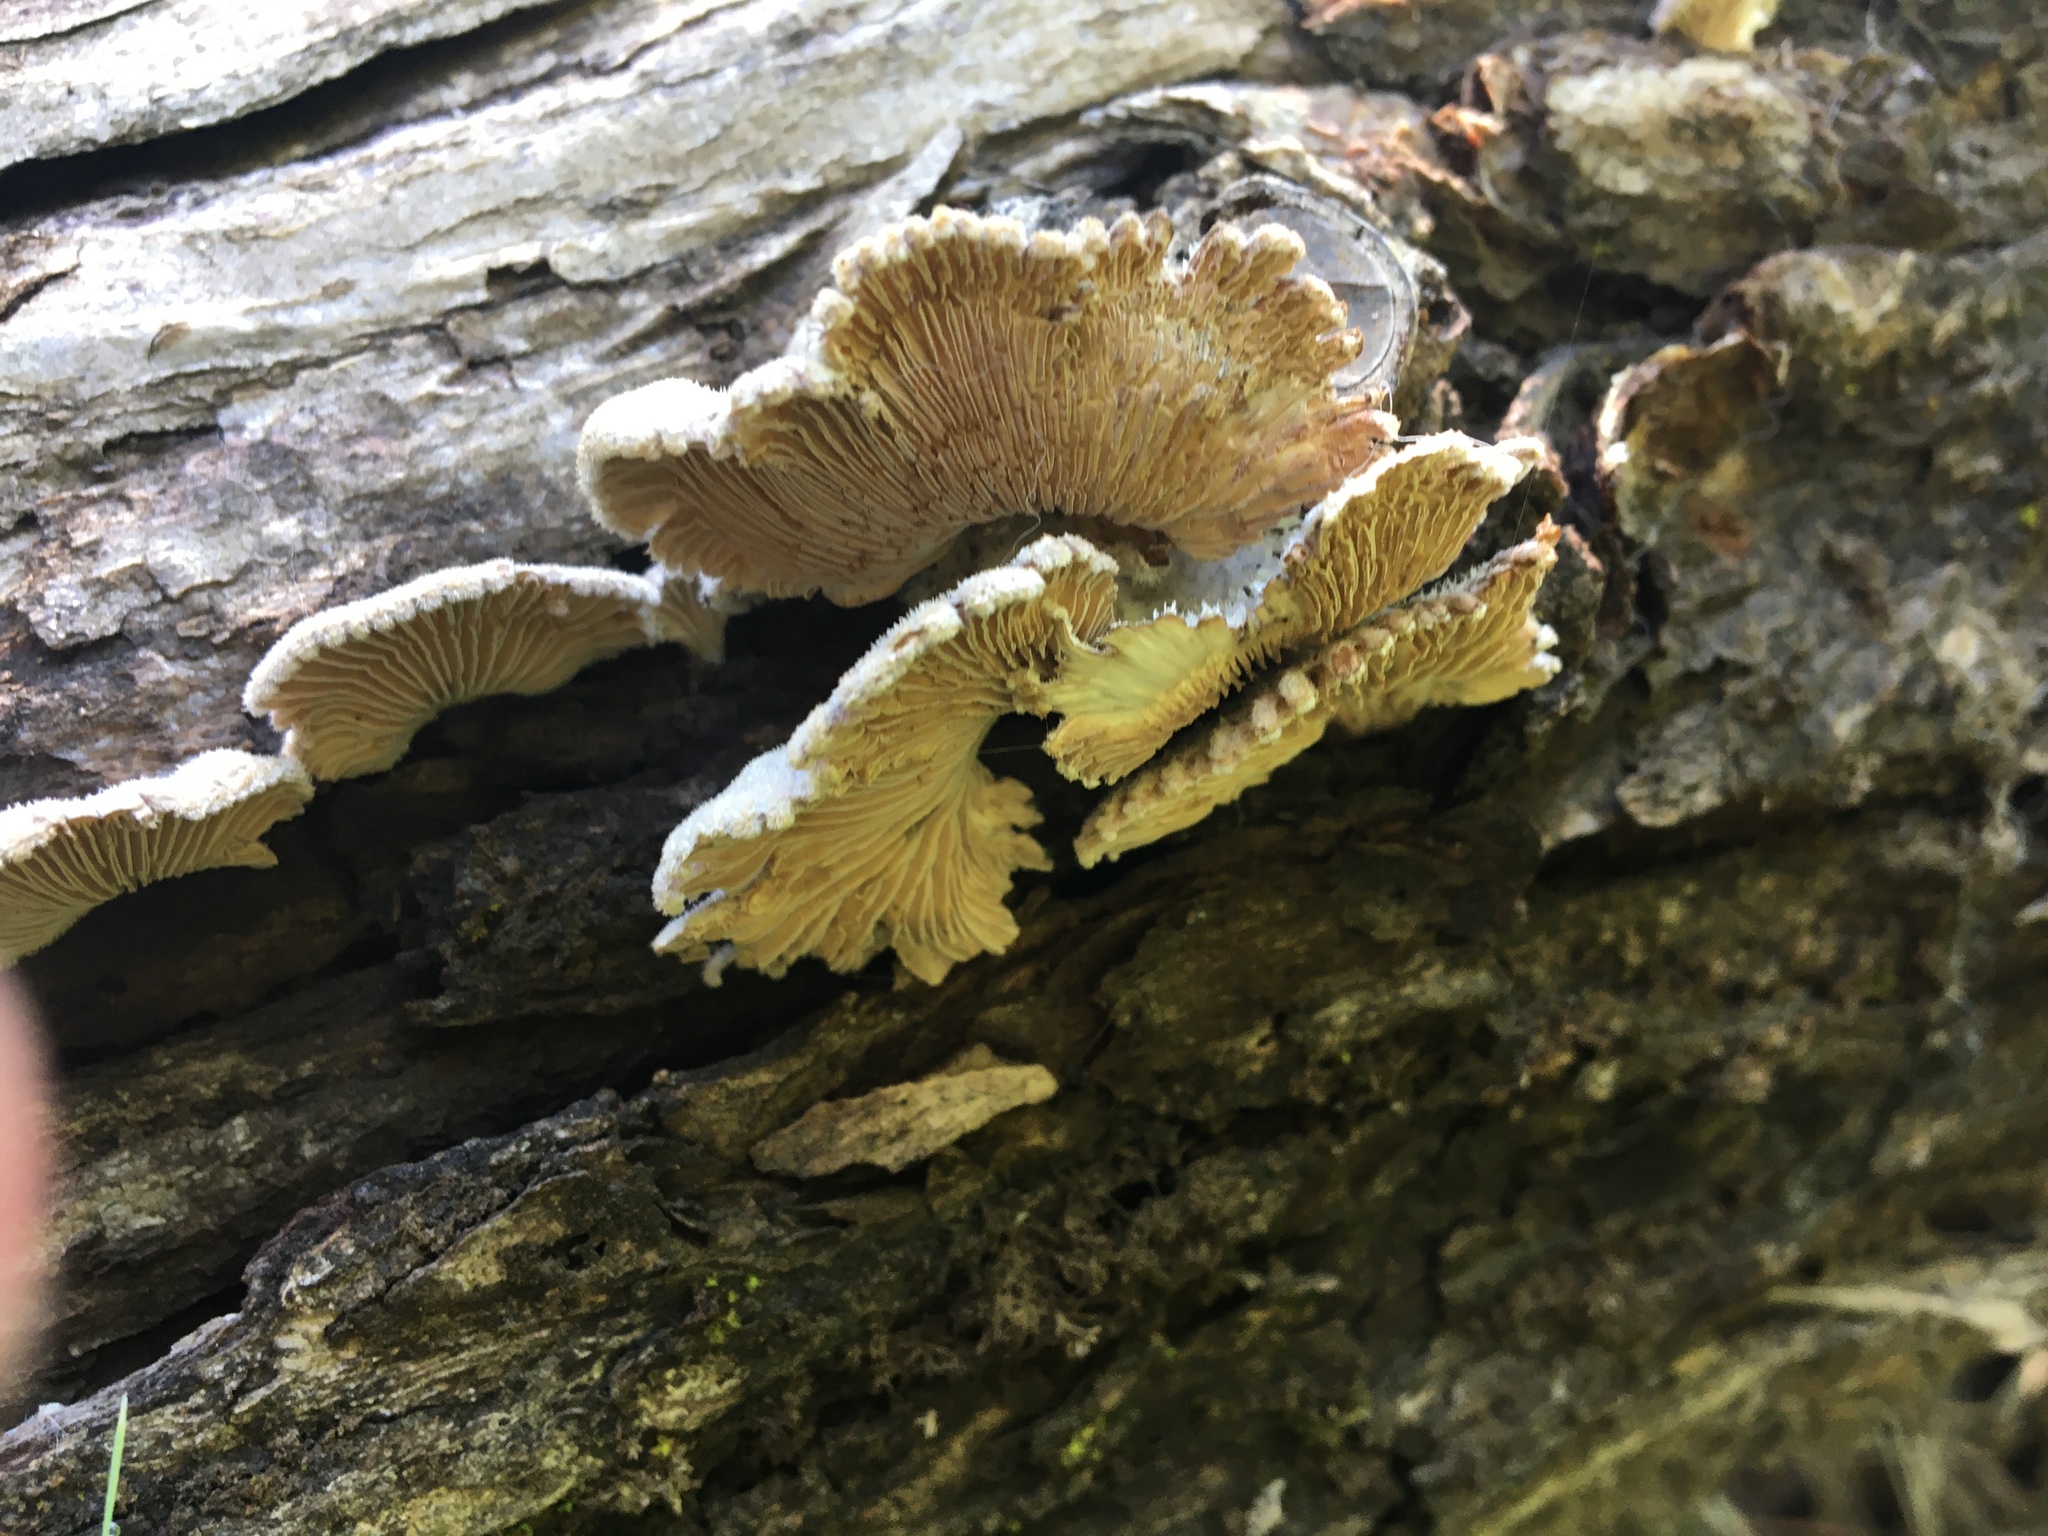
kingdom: Fungi
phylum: Basidiomycota
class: Agaricomycetes
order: Agaricales
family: Schizophyllaceae
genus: Schizophyllum
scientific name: Schizophyllum commune
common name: Common porecrust
